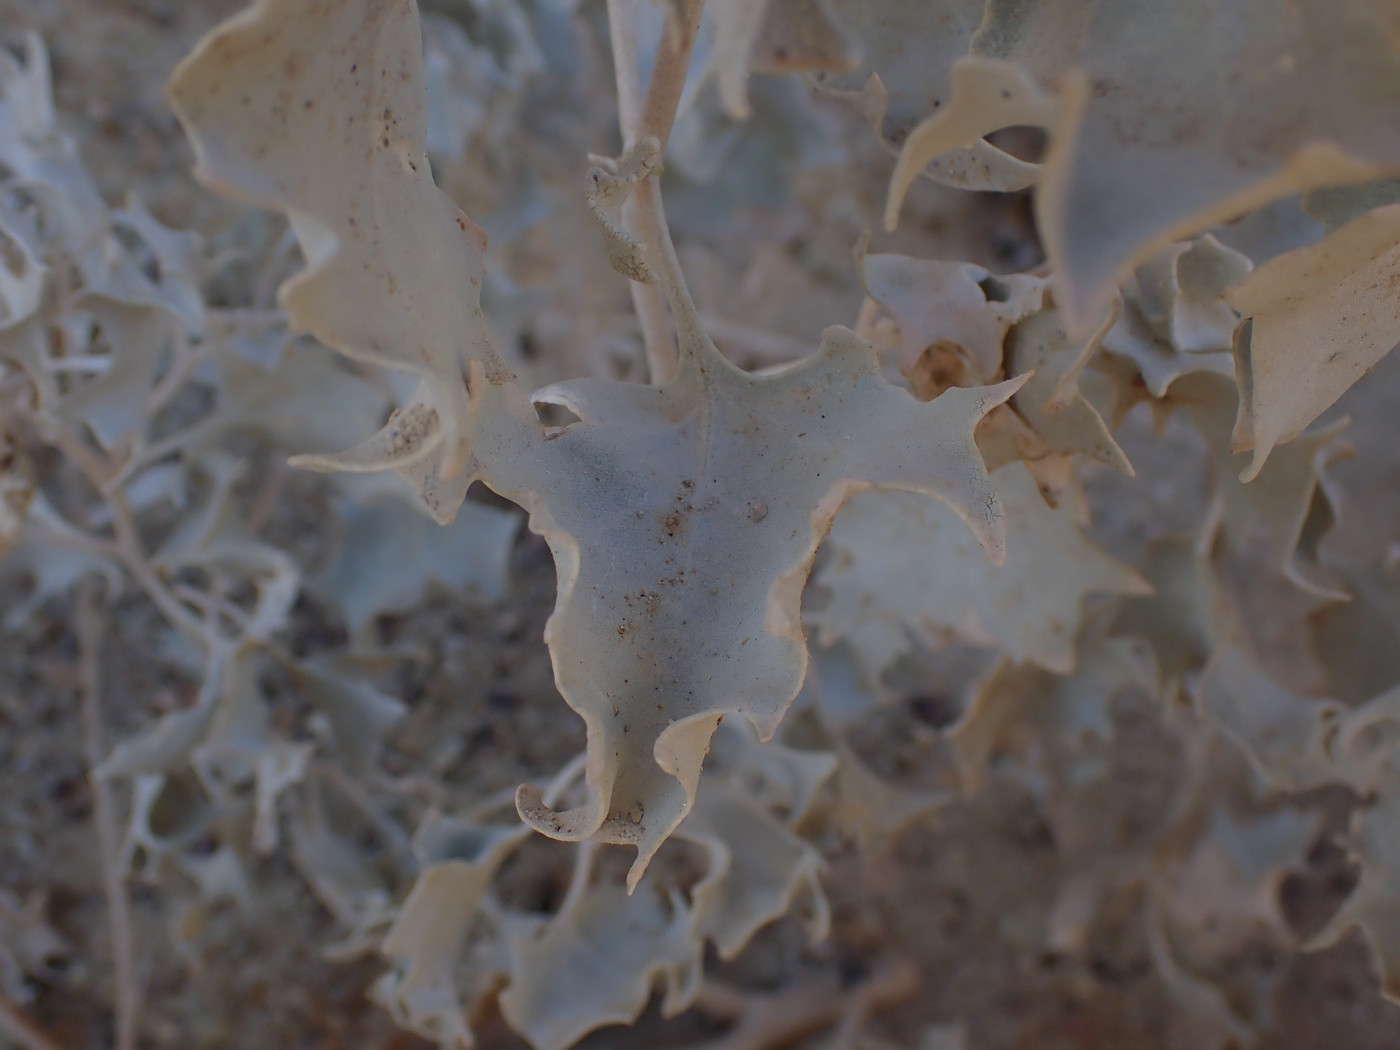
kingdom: Plantae
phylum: Tracheophyta
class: Magnoliopsida
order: Caryophyllales
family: Amaranthaceae
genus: Atriplex
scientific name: Atriplex hymenelytra
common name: Desert-holly
